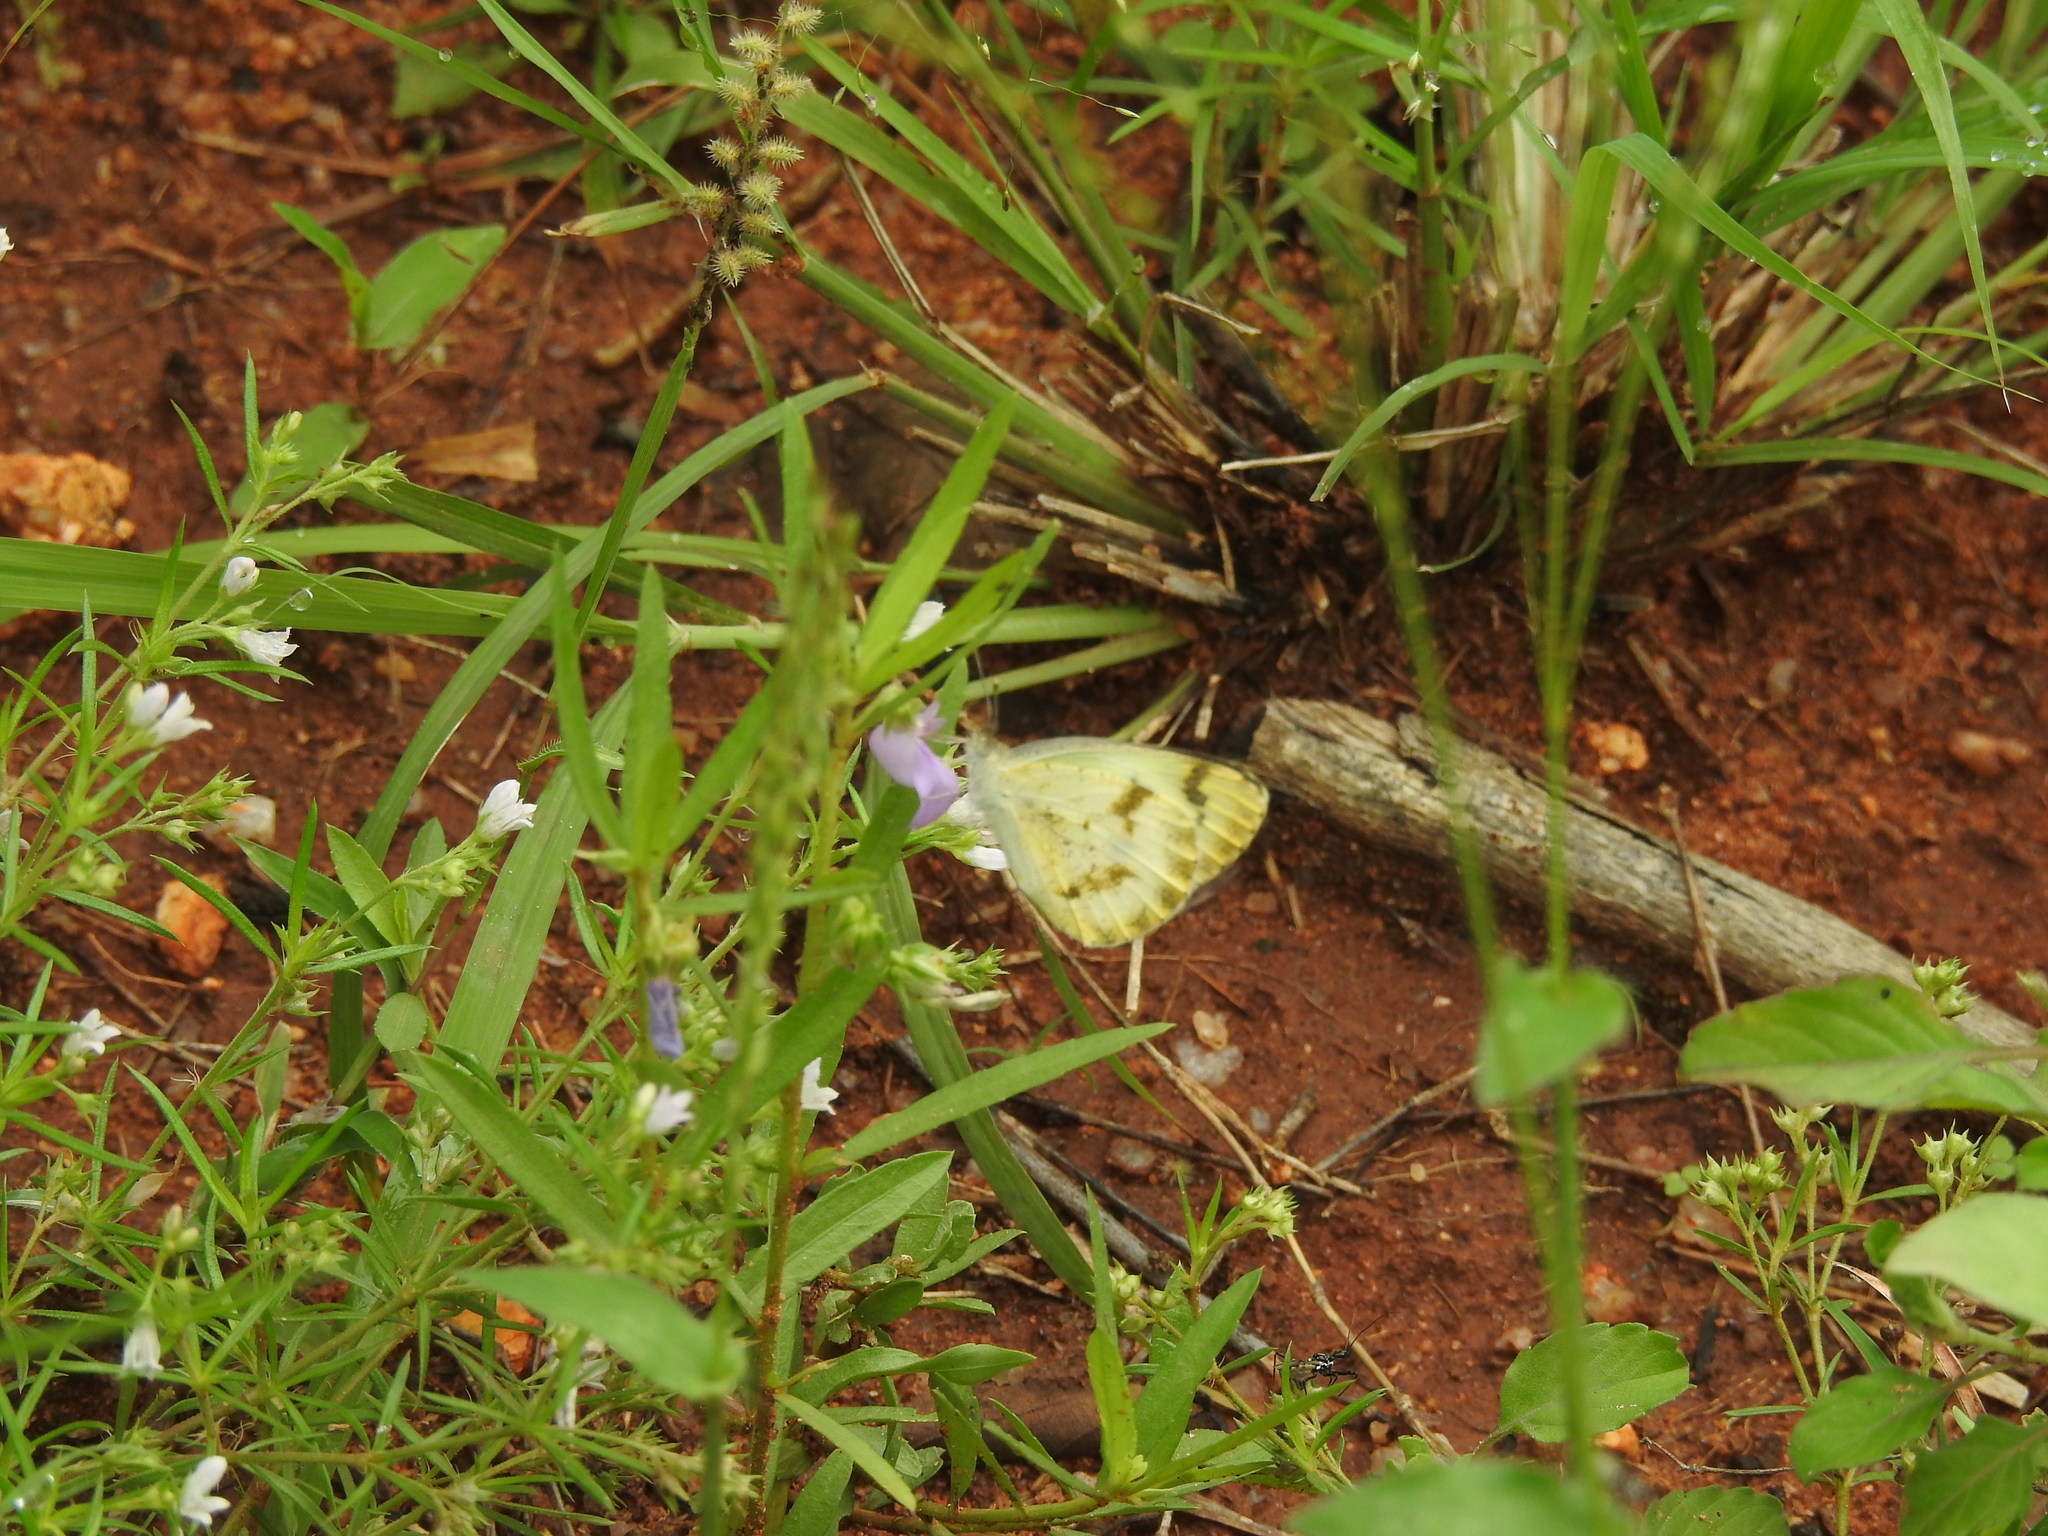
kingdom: Animalia
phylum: Arthropoda
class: Insecta
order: Lepidoptera
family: Pieridae
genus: Colotis
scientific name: Colotis aurora
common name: Plain orange-tip
